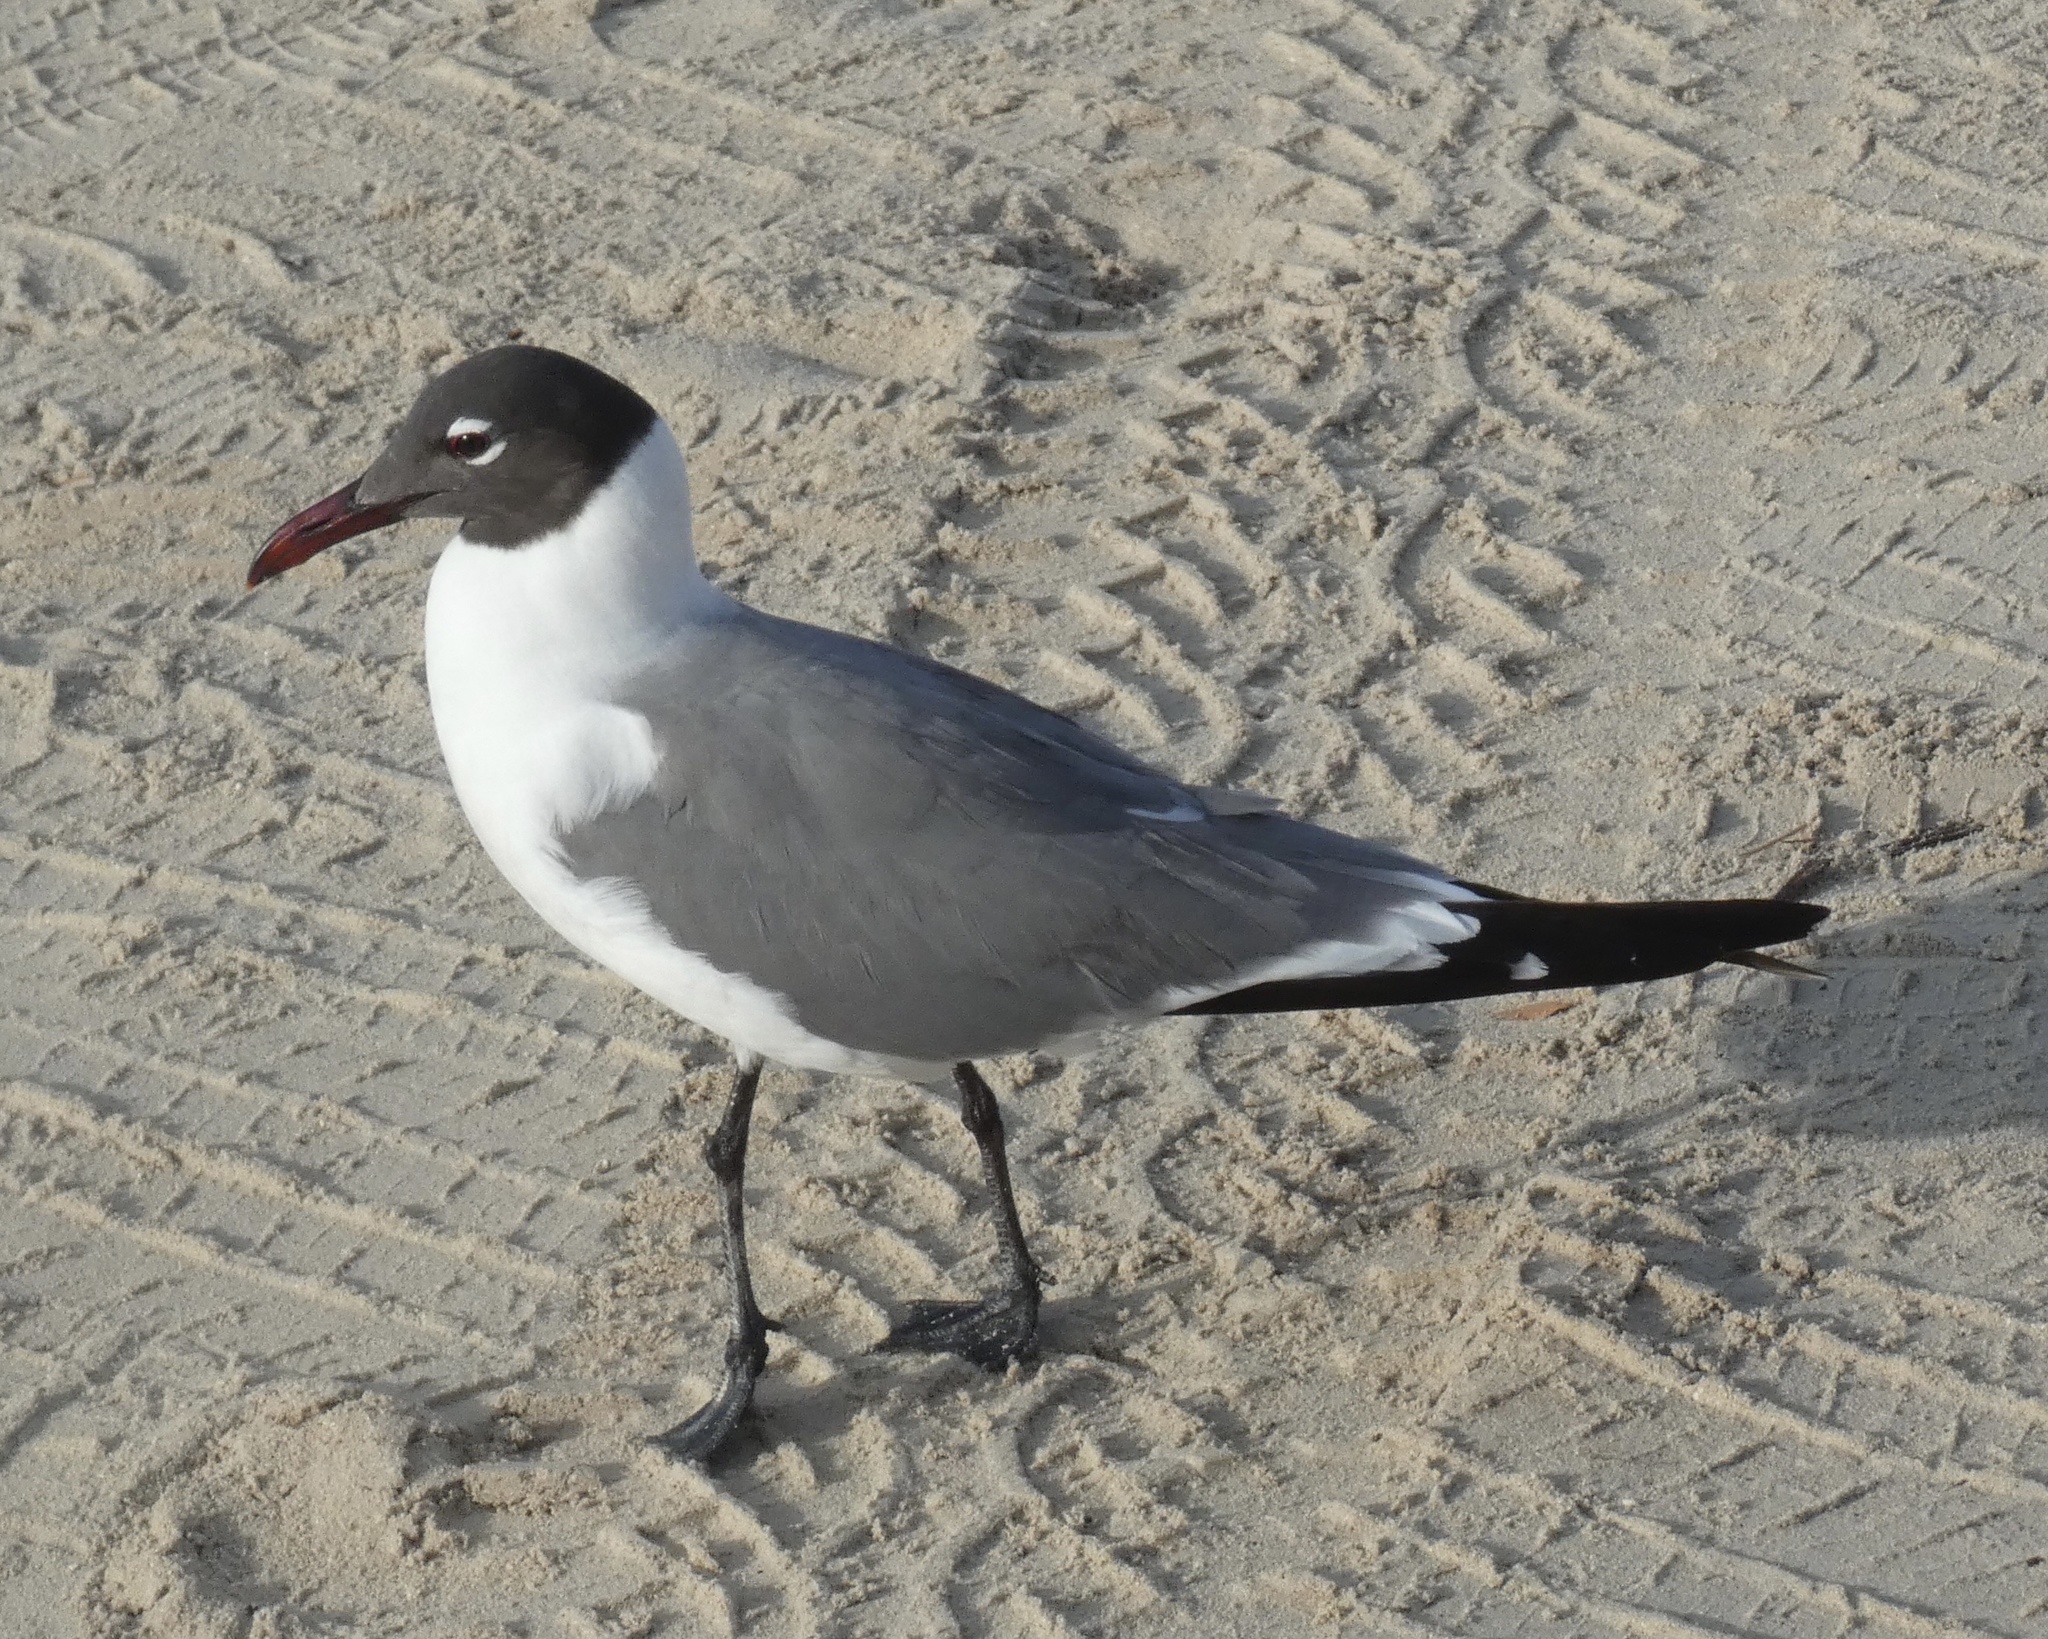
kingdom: Animalia
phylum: Chordata
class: Aves
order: Charadriiformes
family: Laridae
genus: Leucophaeus
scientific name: Leucophaeus atricilla
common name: Laughing gull
